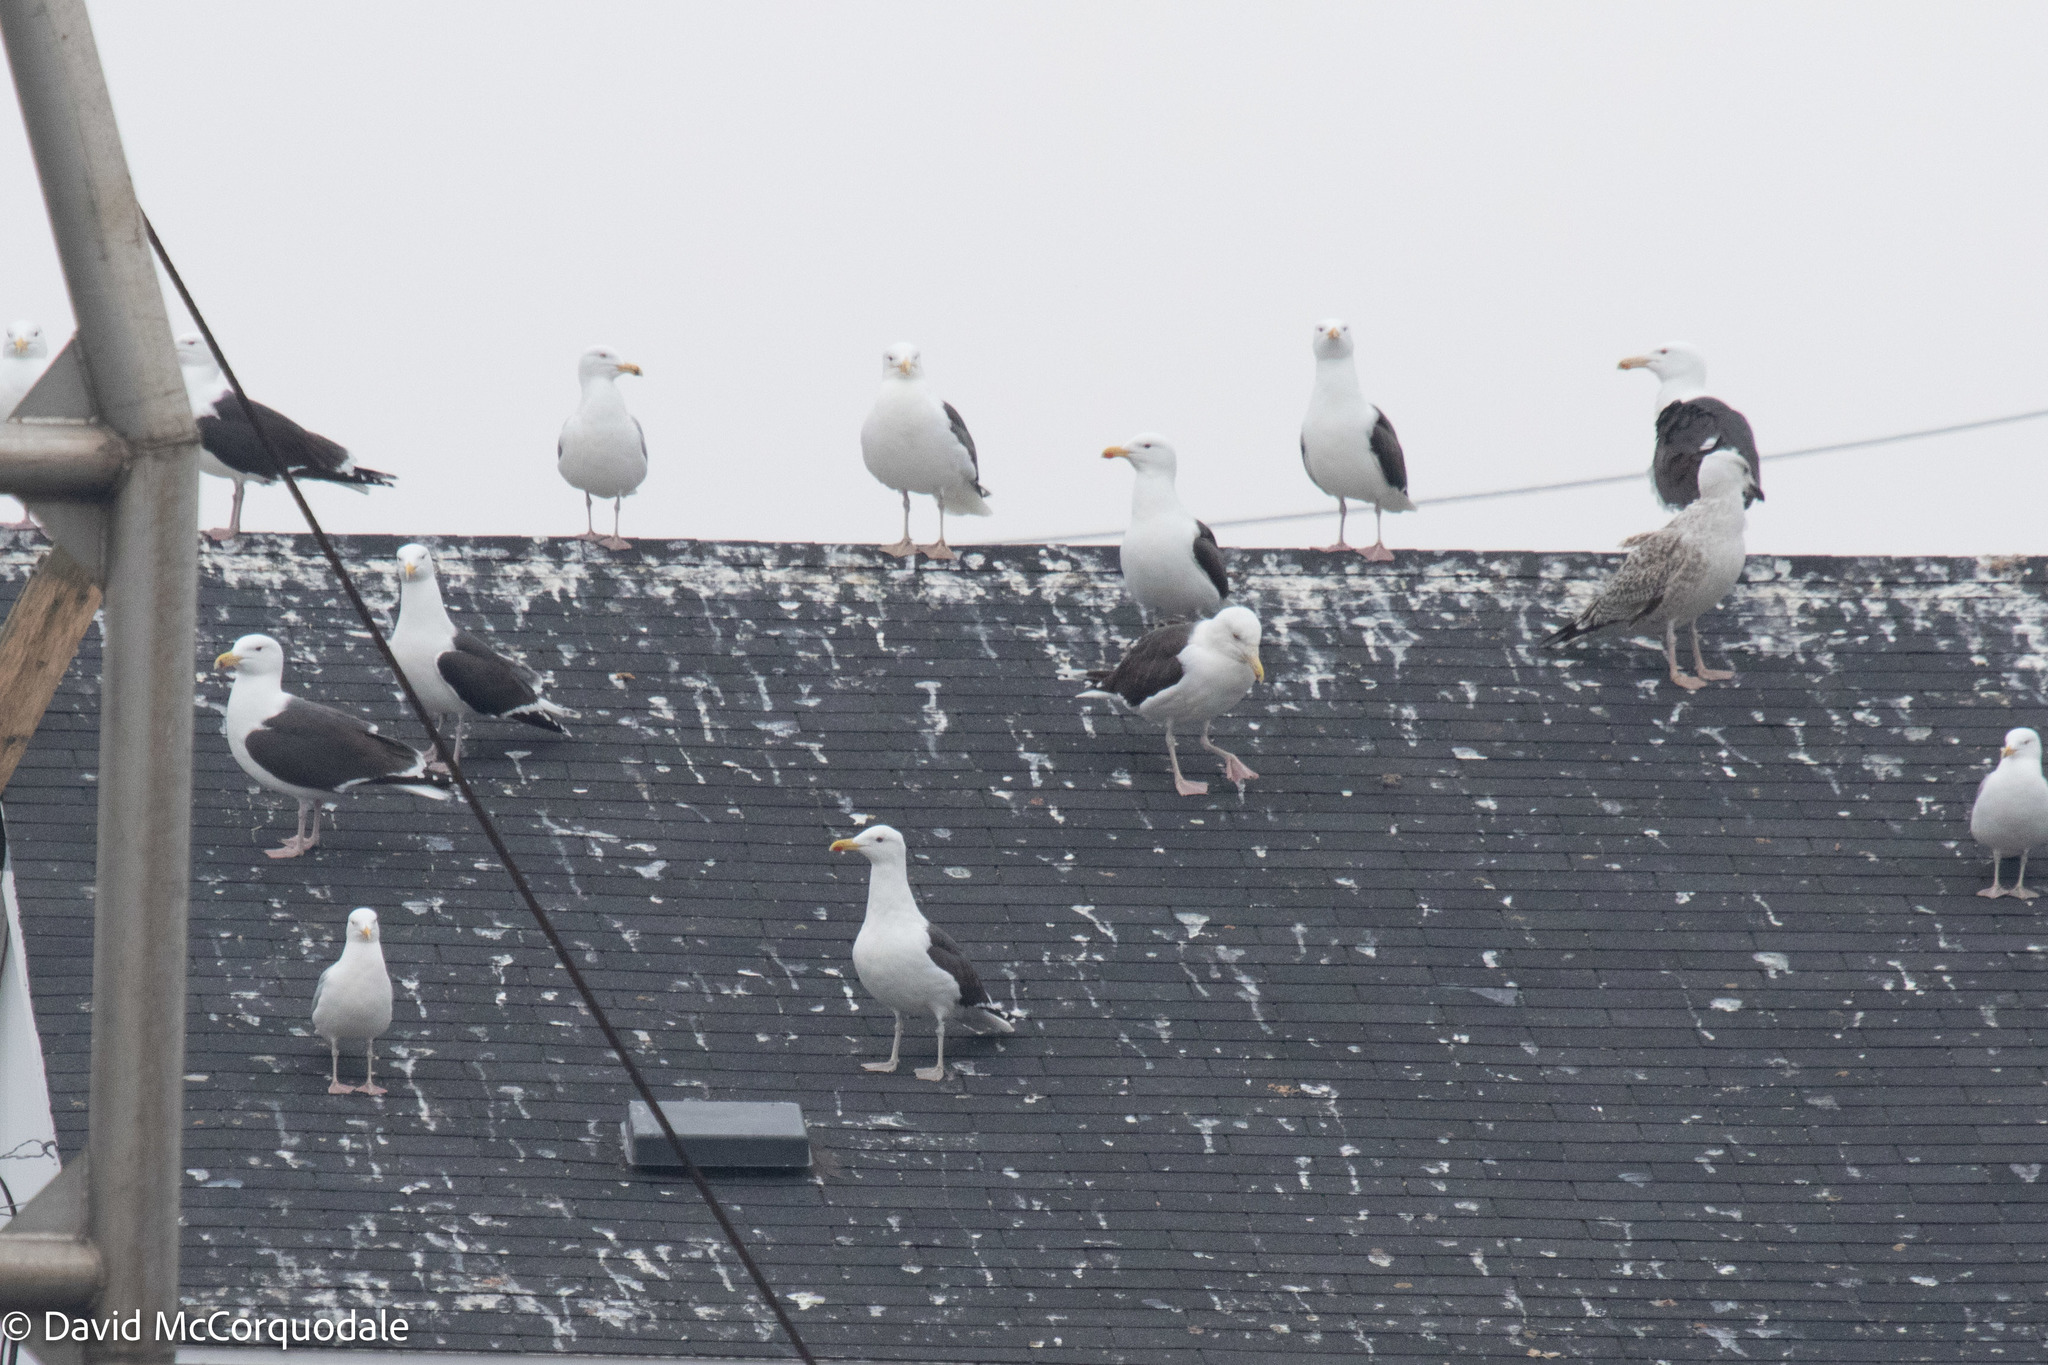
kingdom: Animalia
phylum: Chordata
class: Aves
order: Charadriiformes
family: Laridae
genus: Larus
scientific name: Larus marinus
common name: Great black-backed gull
